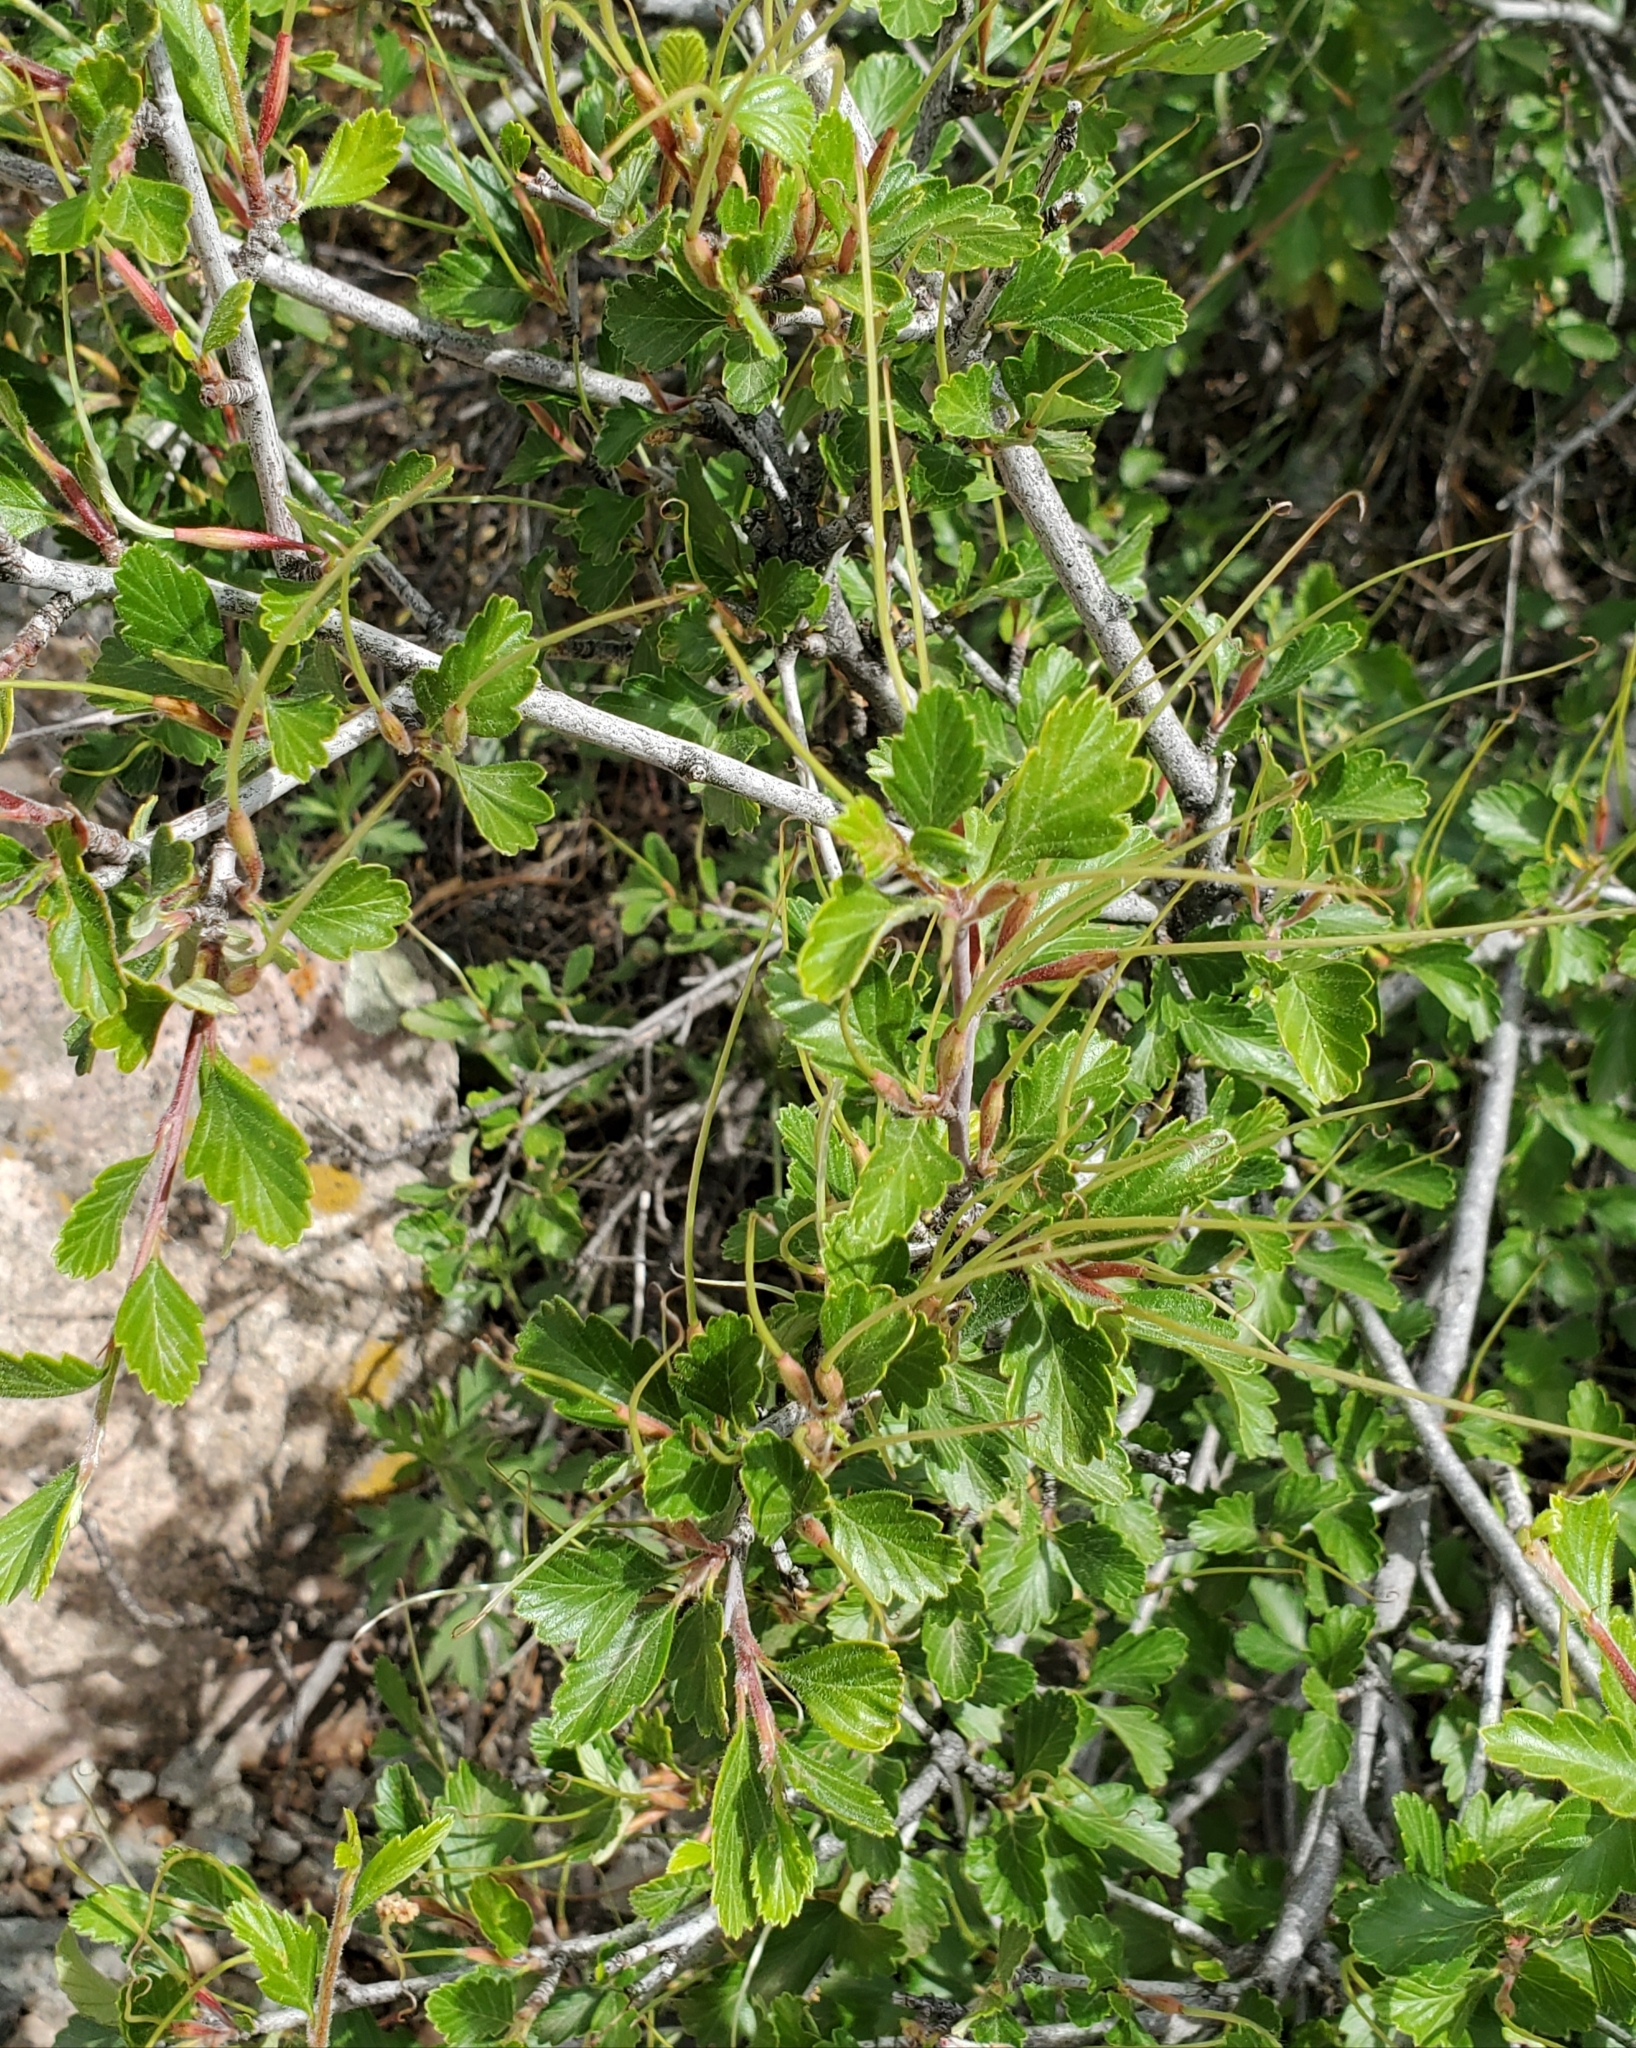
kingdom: Plantae
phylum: Tracheophyta
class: Magnoliopsida
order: Rosales
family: Rosaceae
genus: Cercocarpus
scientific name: Cercocarpus montanus
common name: Alder-leaf cercocarpus
